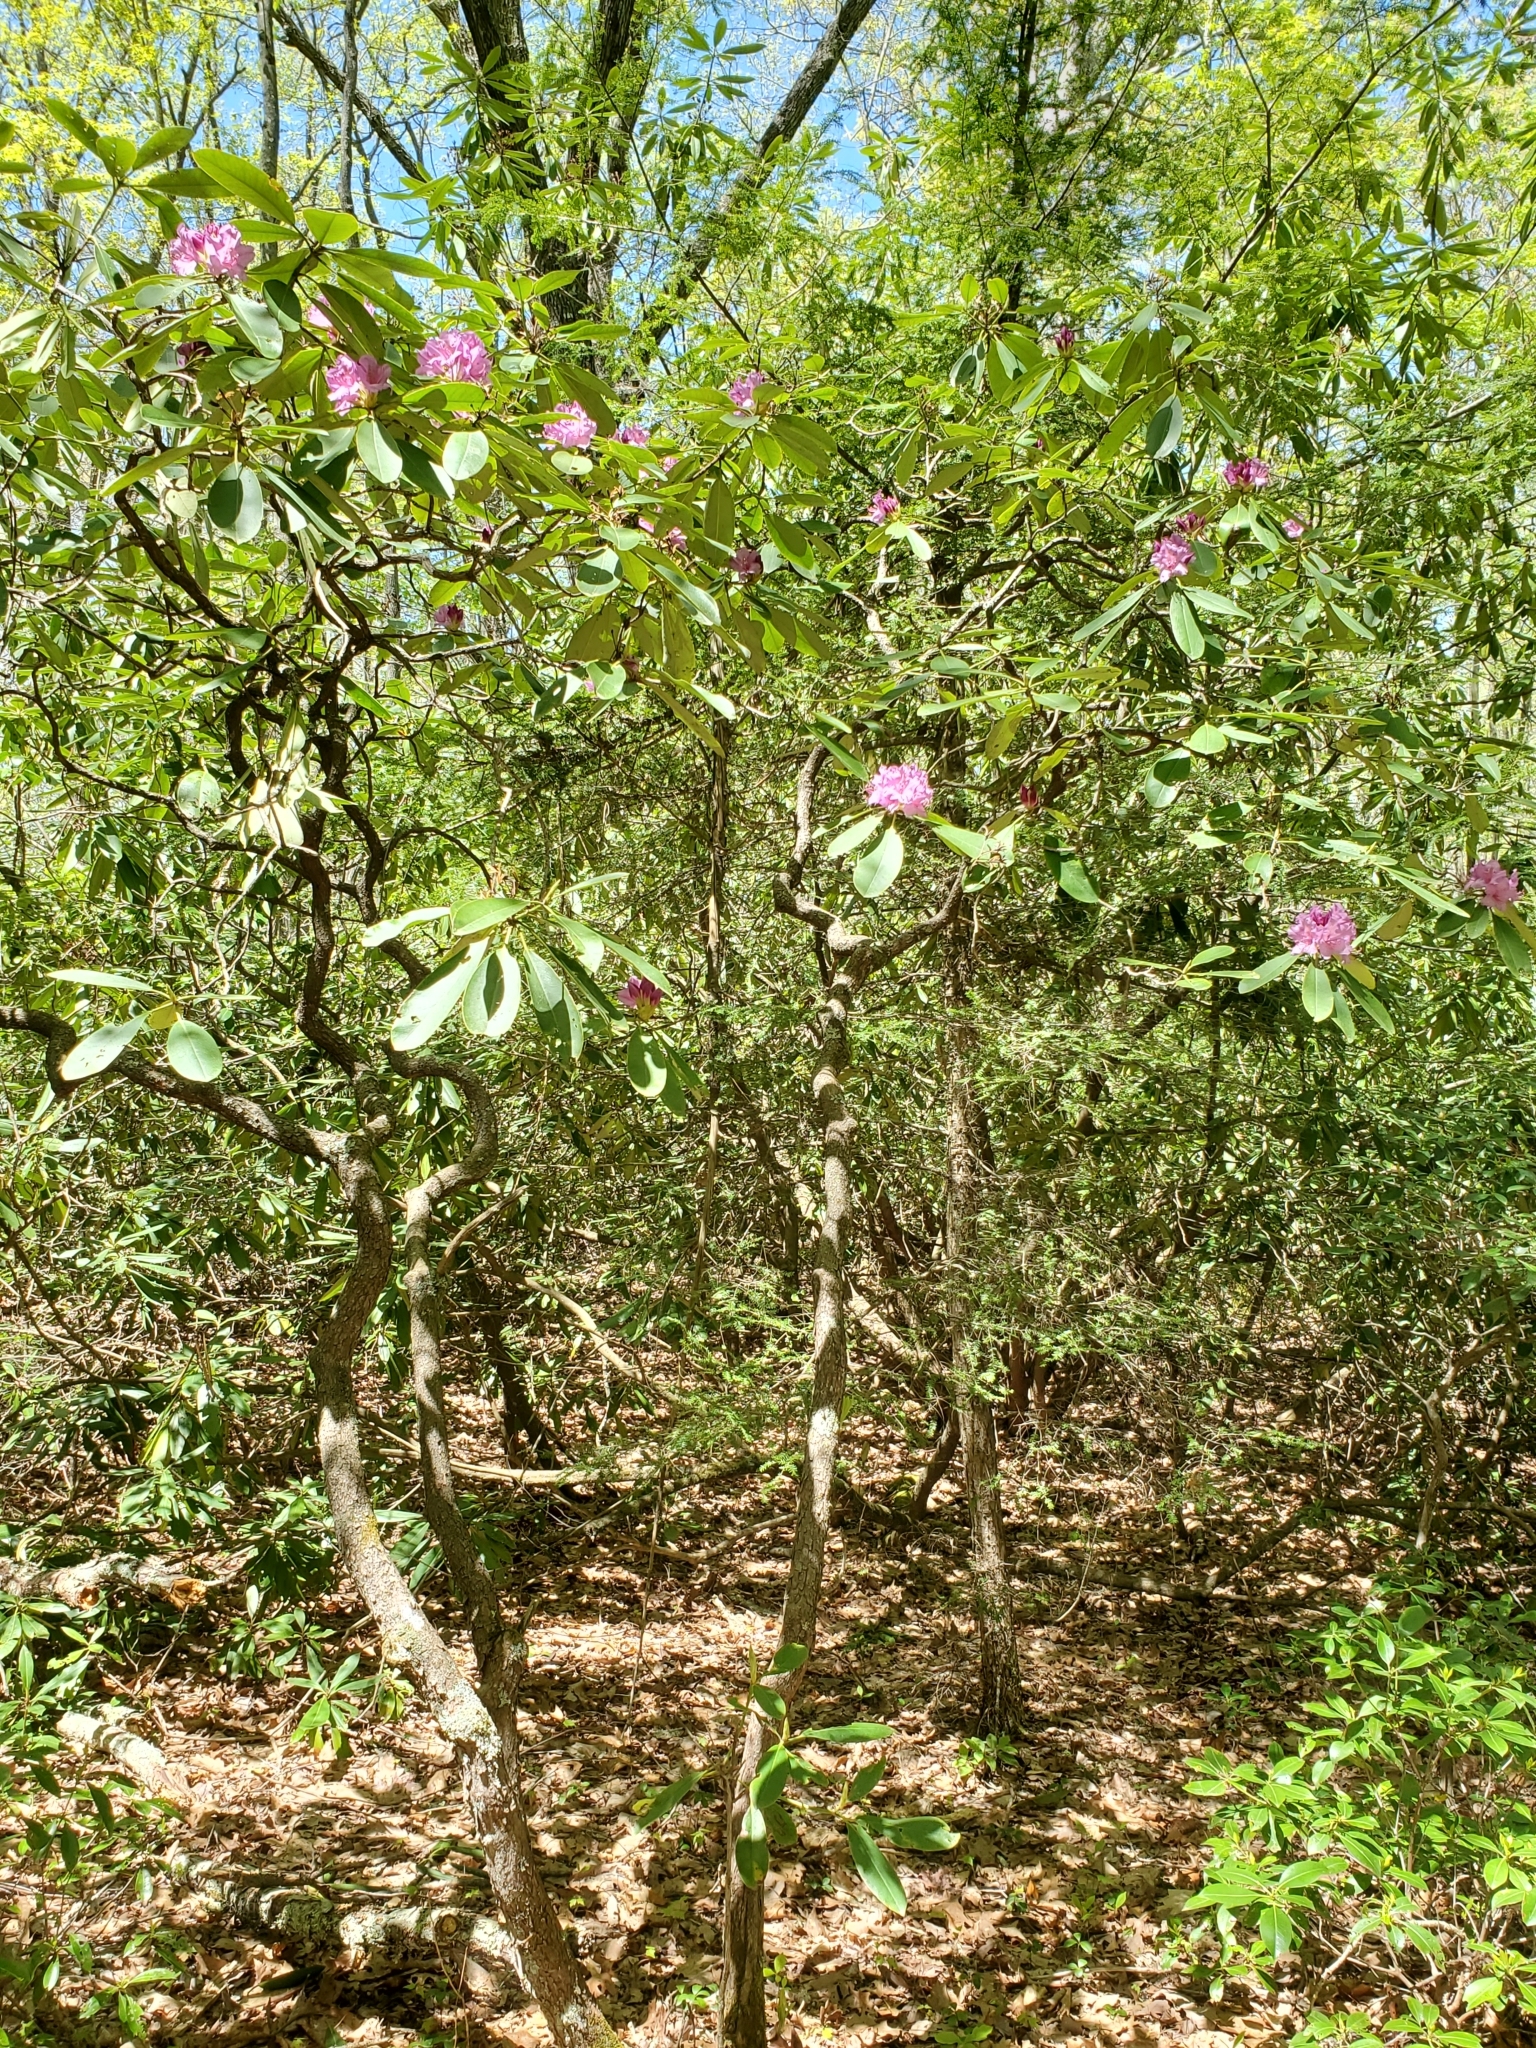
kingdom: Plantae
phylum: Tracheophyta
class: Magnoliopsida
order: Ericales
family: Ericaceae
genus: Rhododendron
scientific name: Rhododendron catawbiense
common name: Catawba rhododendron
